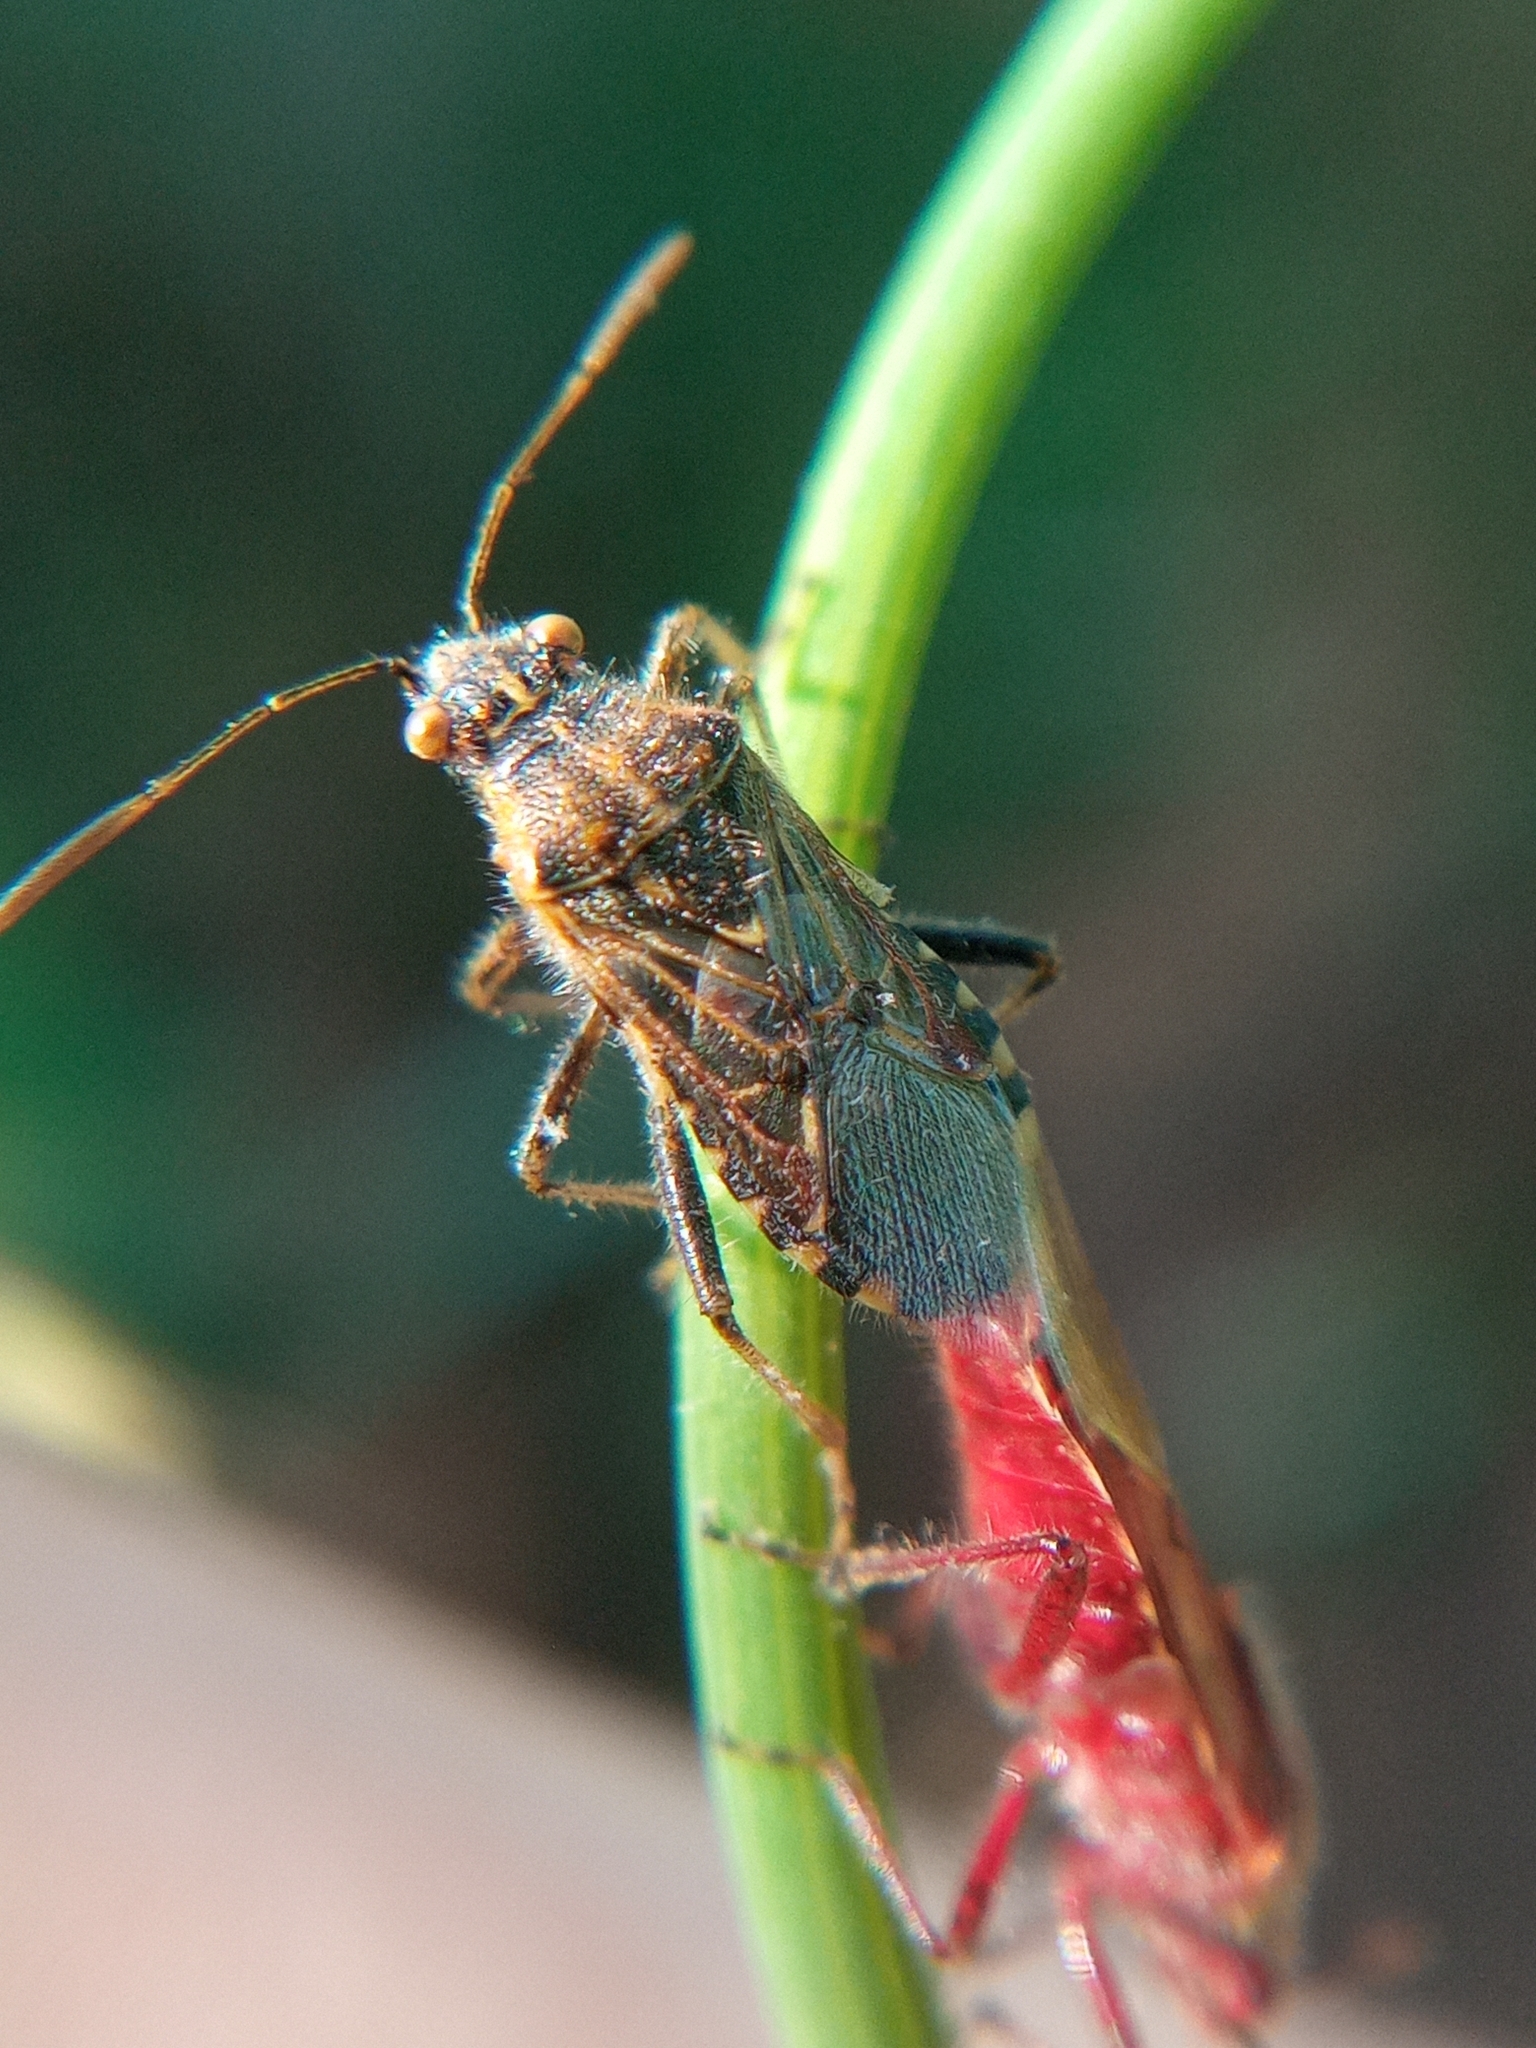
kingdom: Animalia
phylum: Arthropoda
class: Insecta
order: Hemiptera
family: Rhopalidae
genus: Liorhyssus
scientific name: Liorhyssus hyalinus
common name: Scentless plant bug
